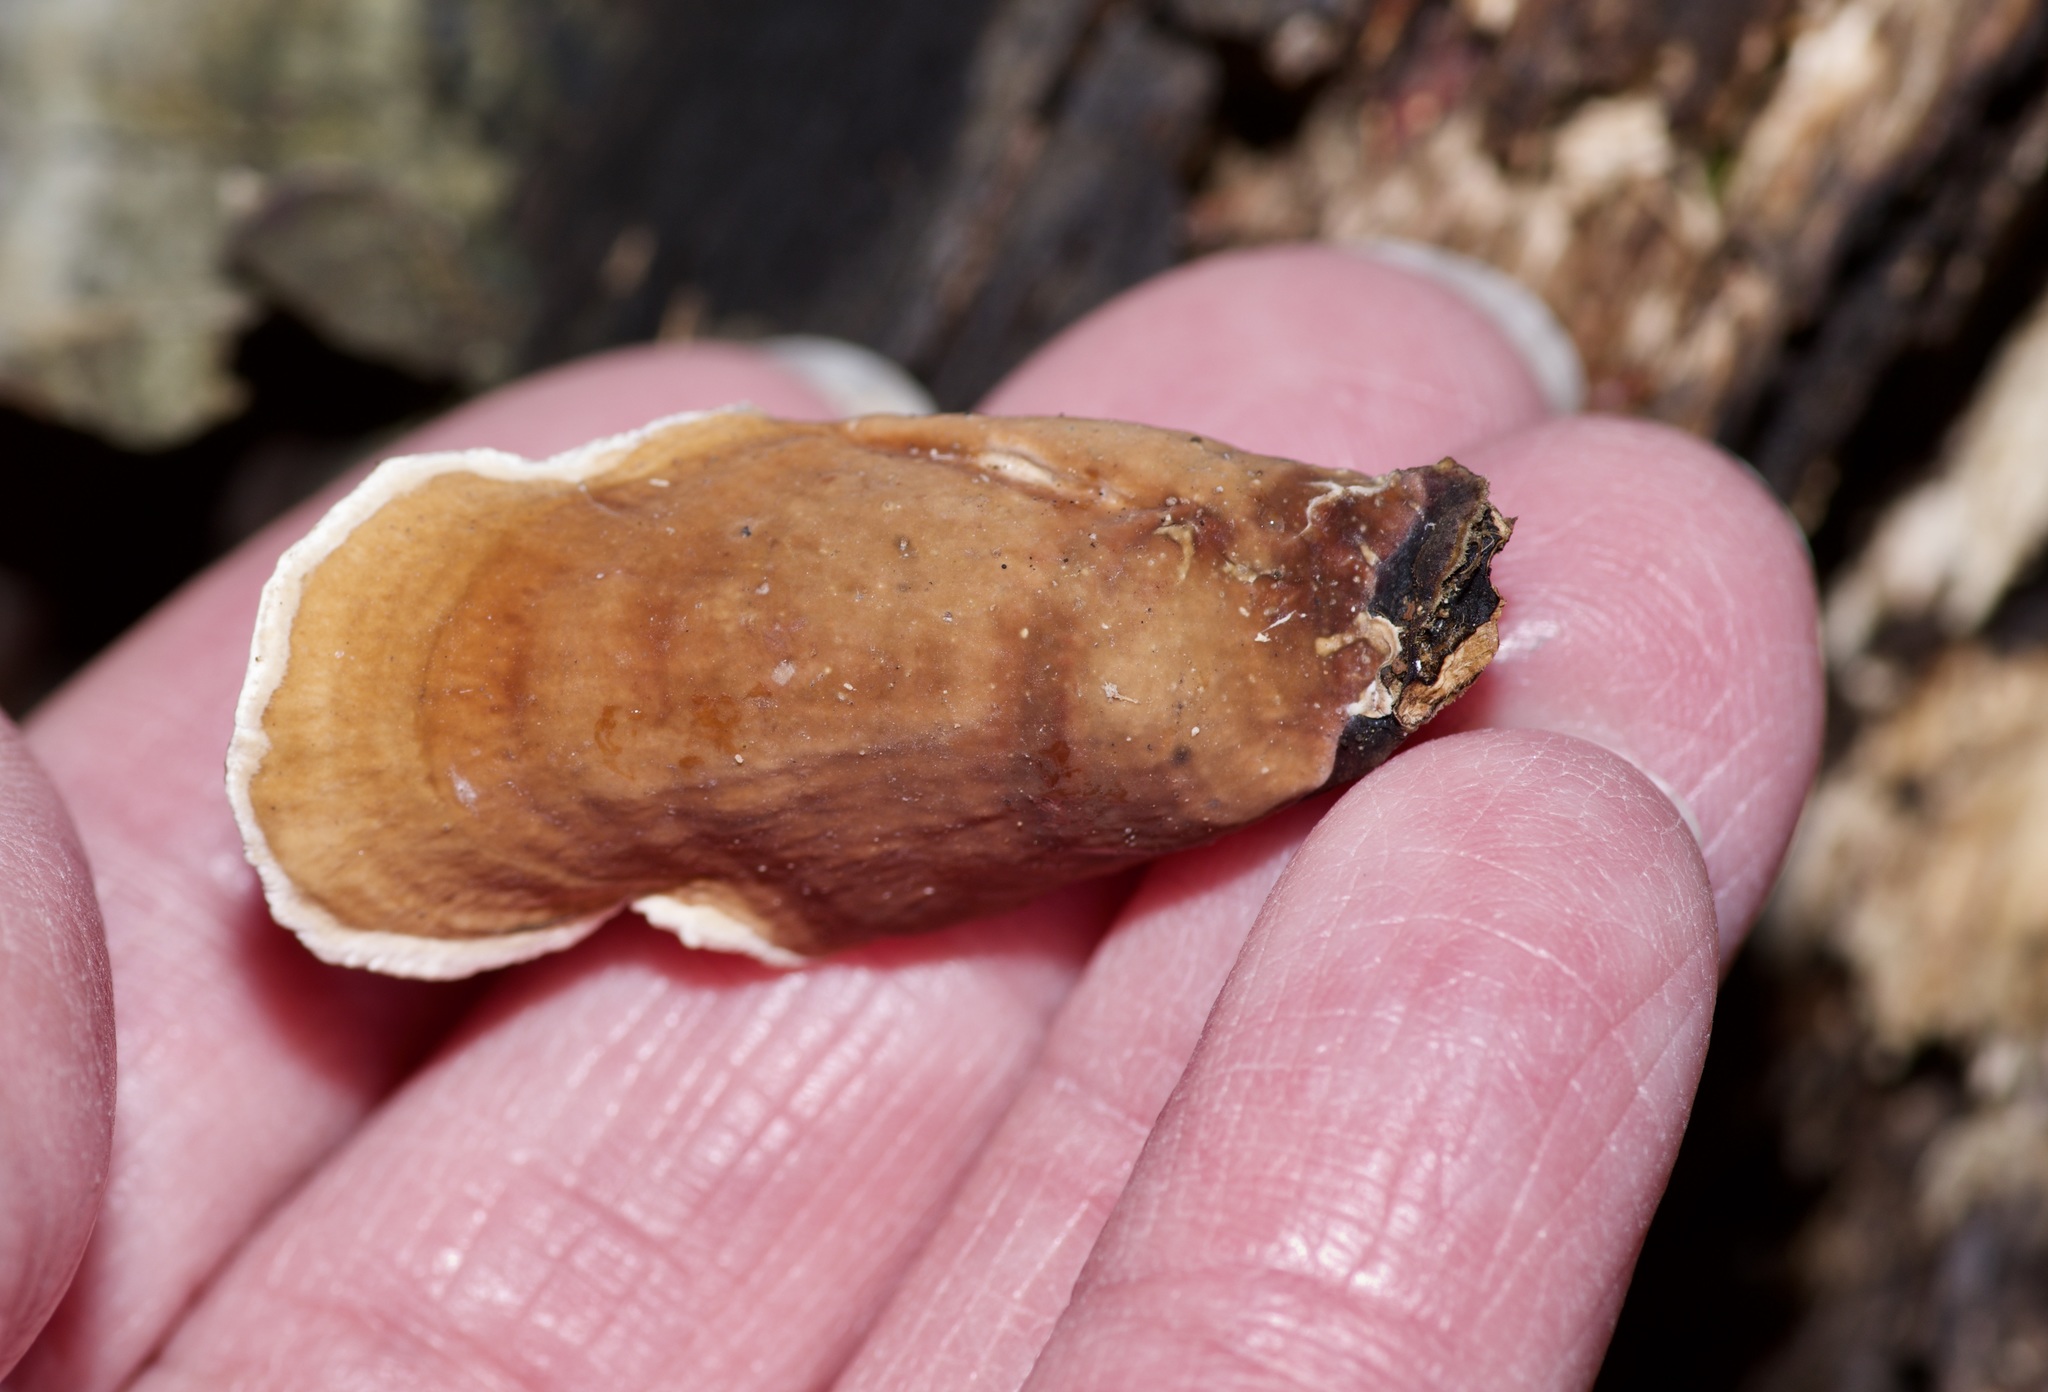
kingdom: Fungi
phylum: Basidiomycota
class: Agaricomycetes
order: Russulales
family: Stereaceae
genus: Stereum
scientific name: Stereum ostrea
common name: False turkeytail
